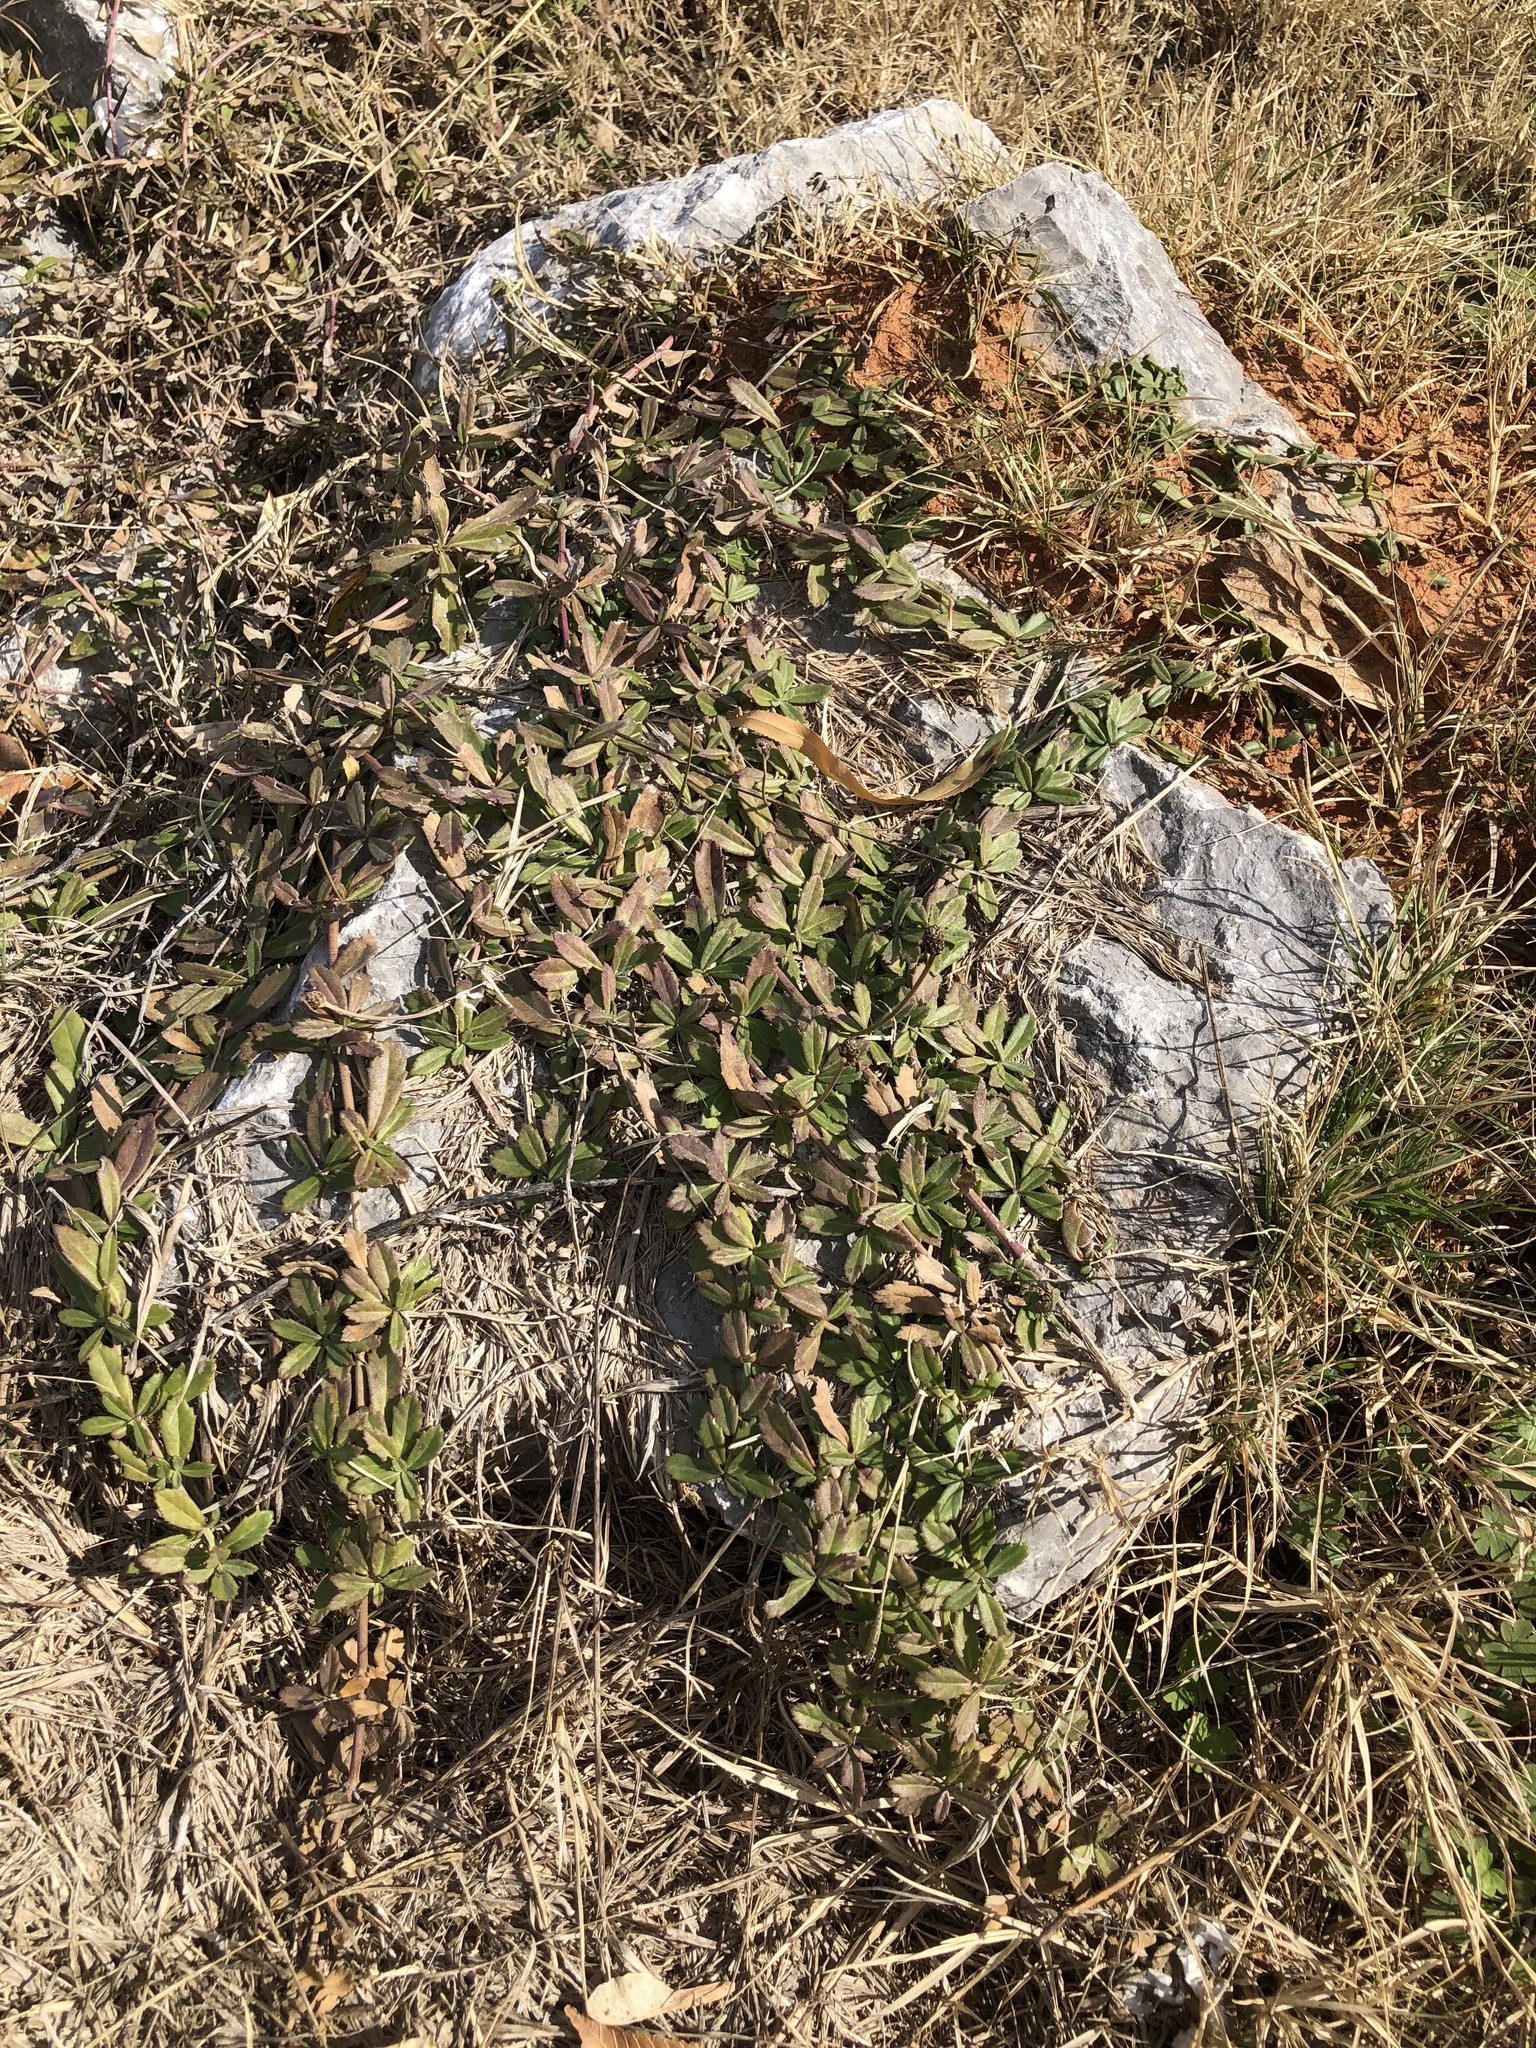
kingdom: Plantae
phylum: Tracheophyta
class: Magnoliopsida
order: Lamiales
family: Verbenaceae
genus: Phyla
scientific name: Phyla nodiflora
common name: Frogfruit
